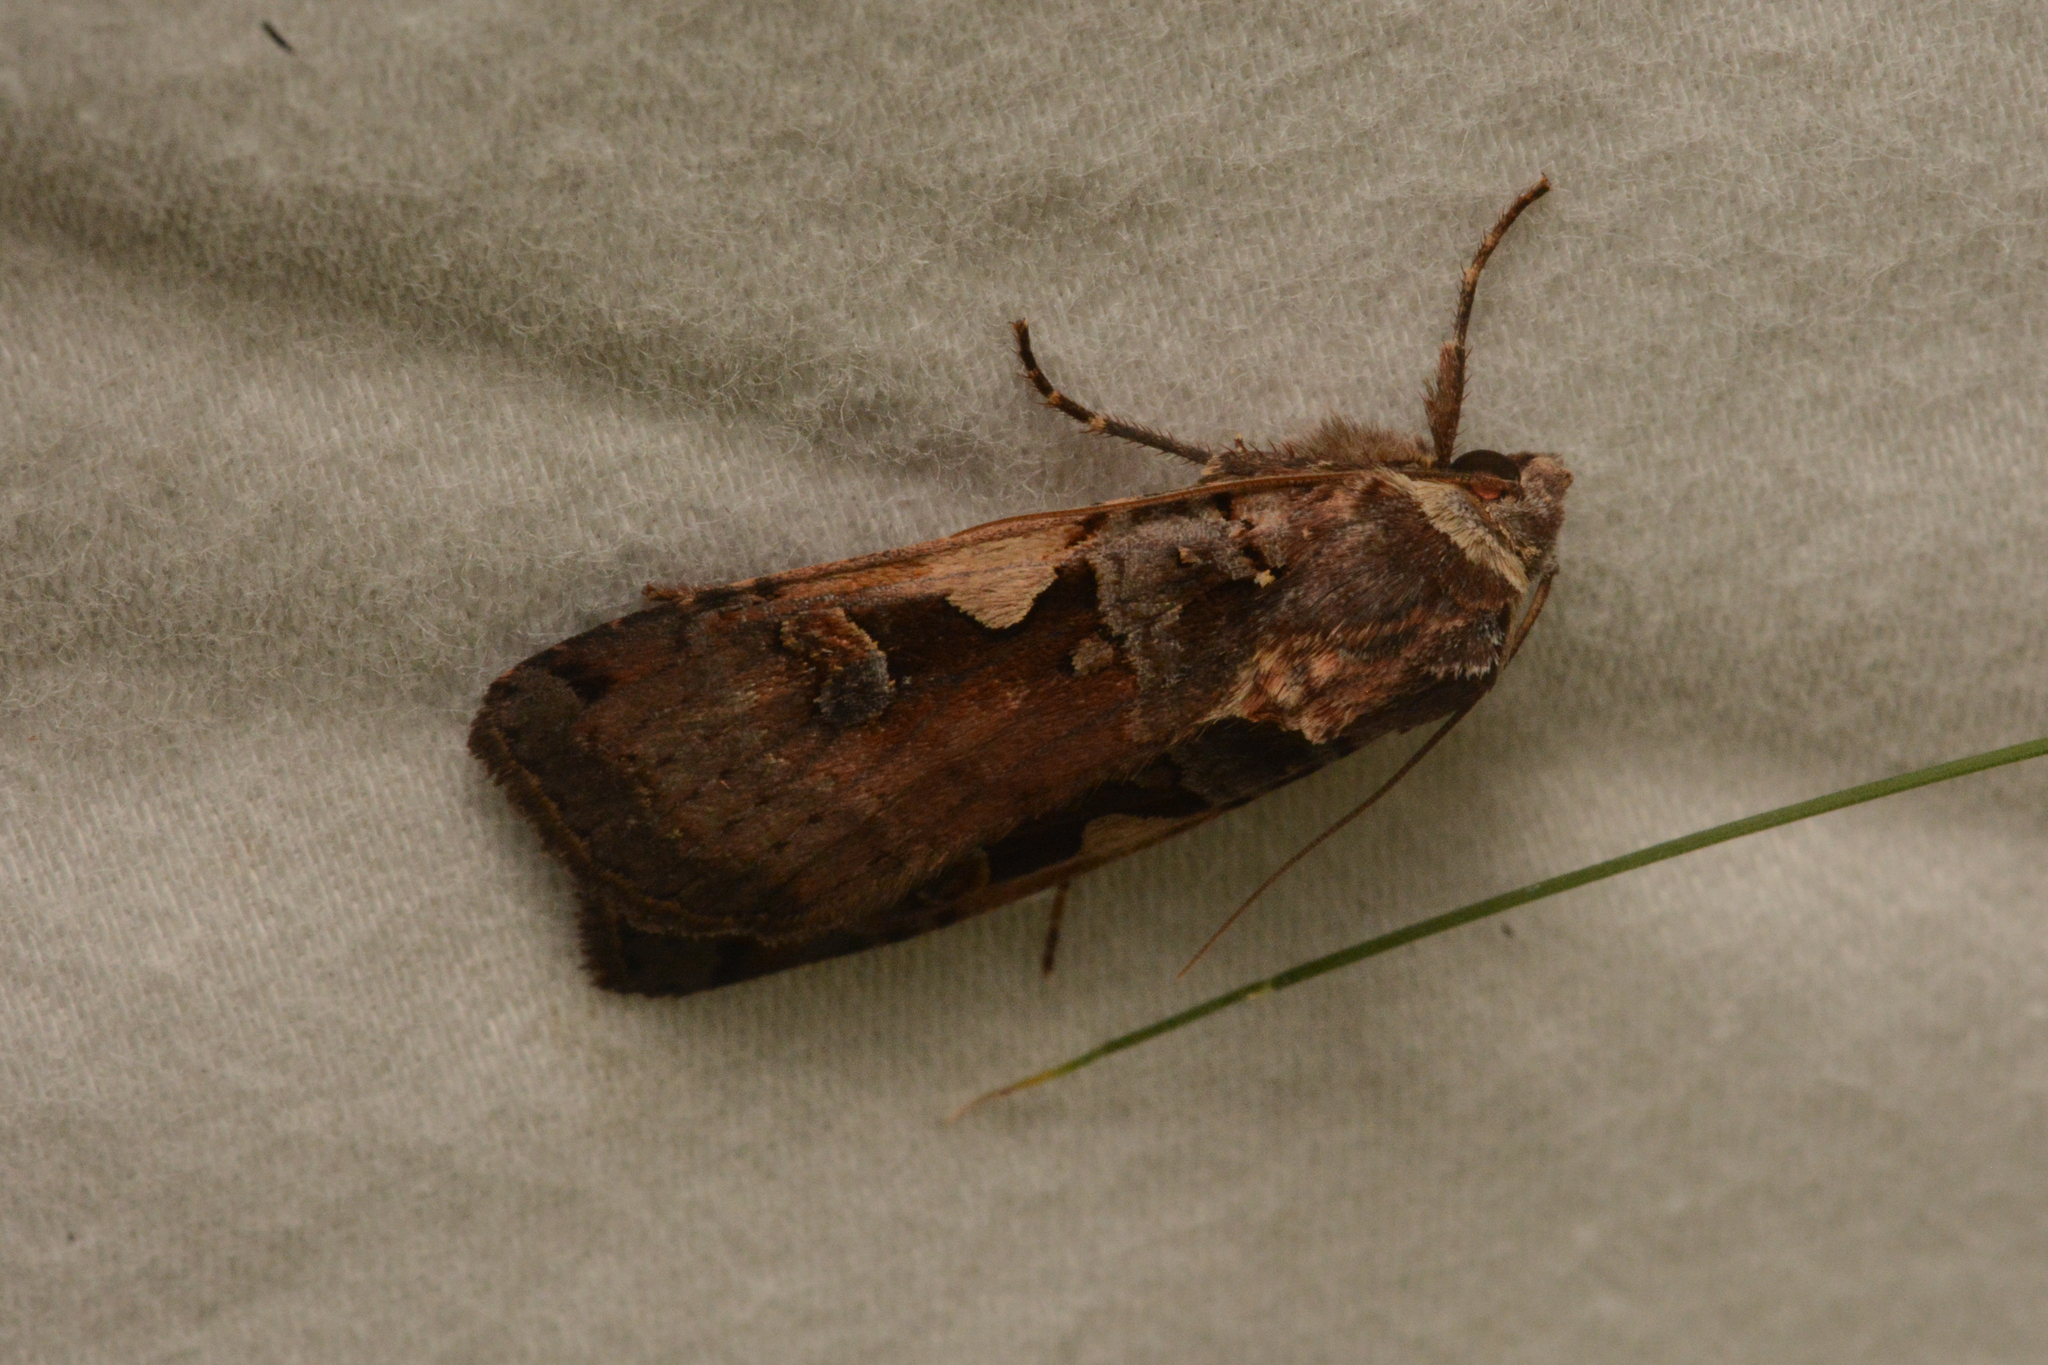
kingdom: Animalia
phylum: Arthropoda
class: Insecta
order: Lepidoptera
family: Noctuidae
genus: Xestia
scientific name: Xestia c-nigrum
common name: Setaceous hebrew character
